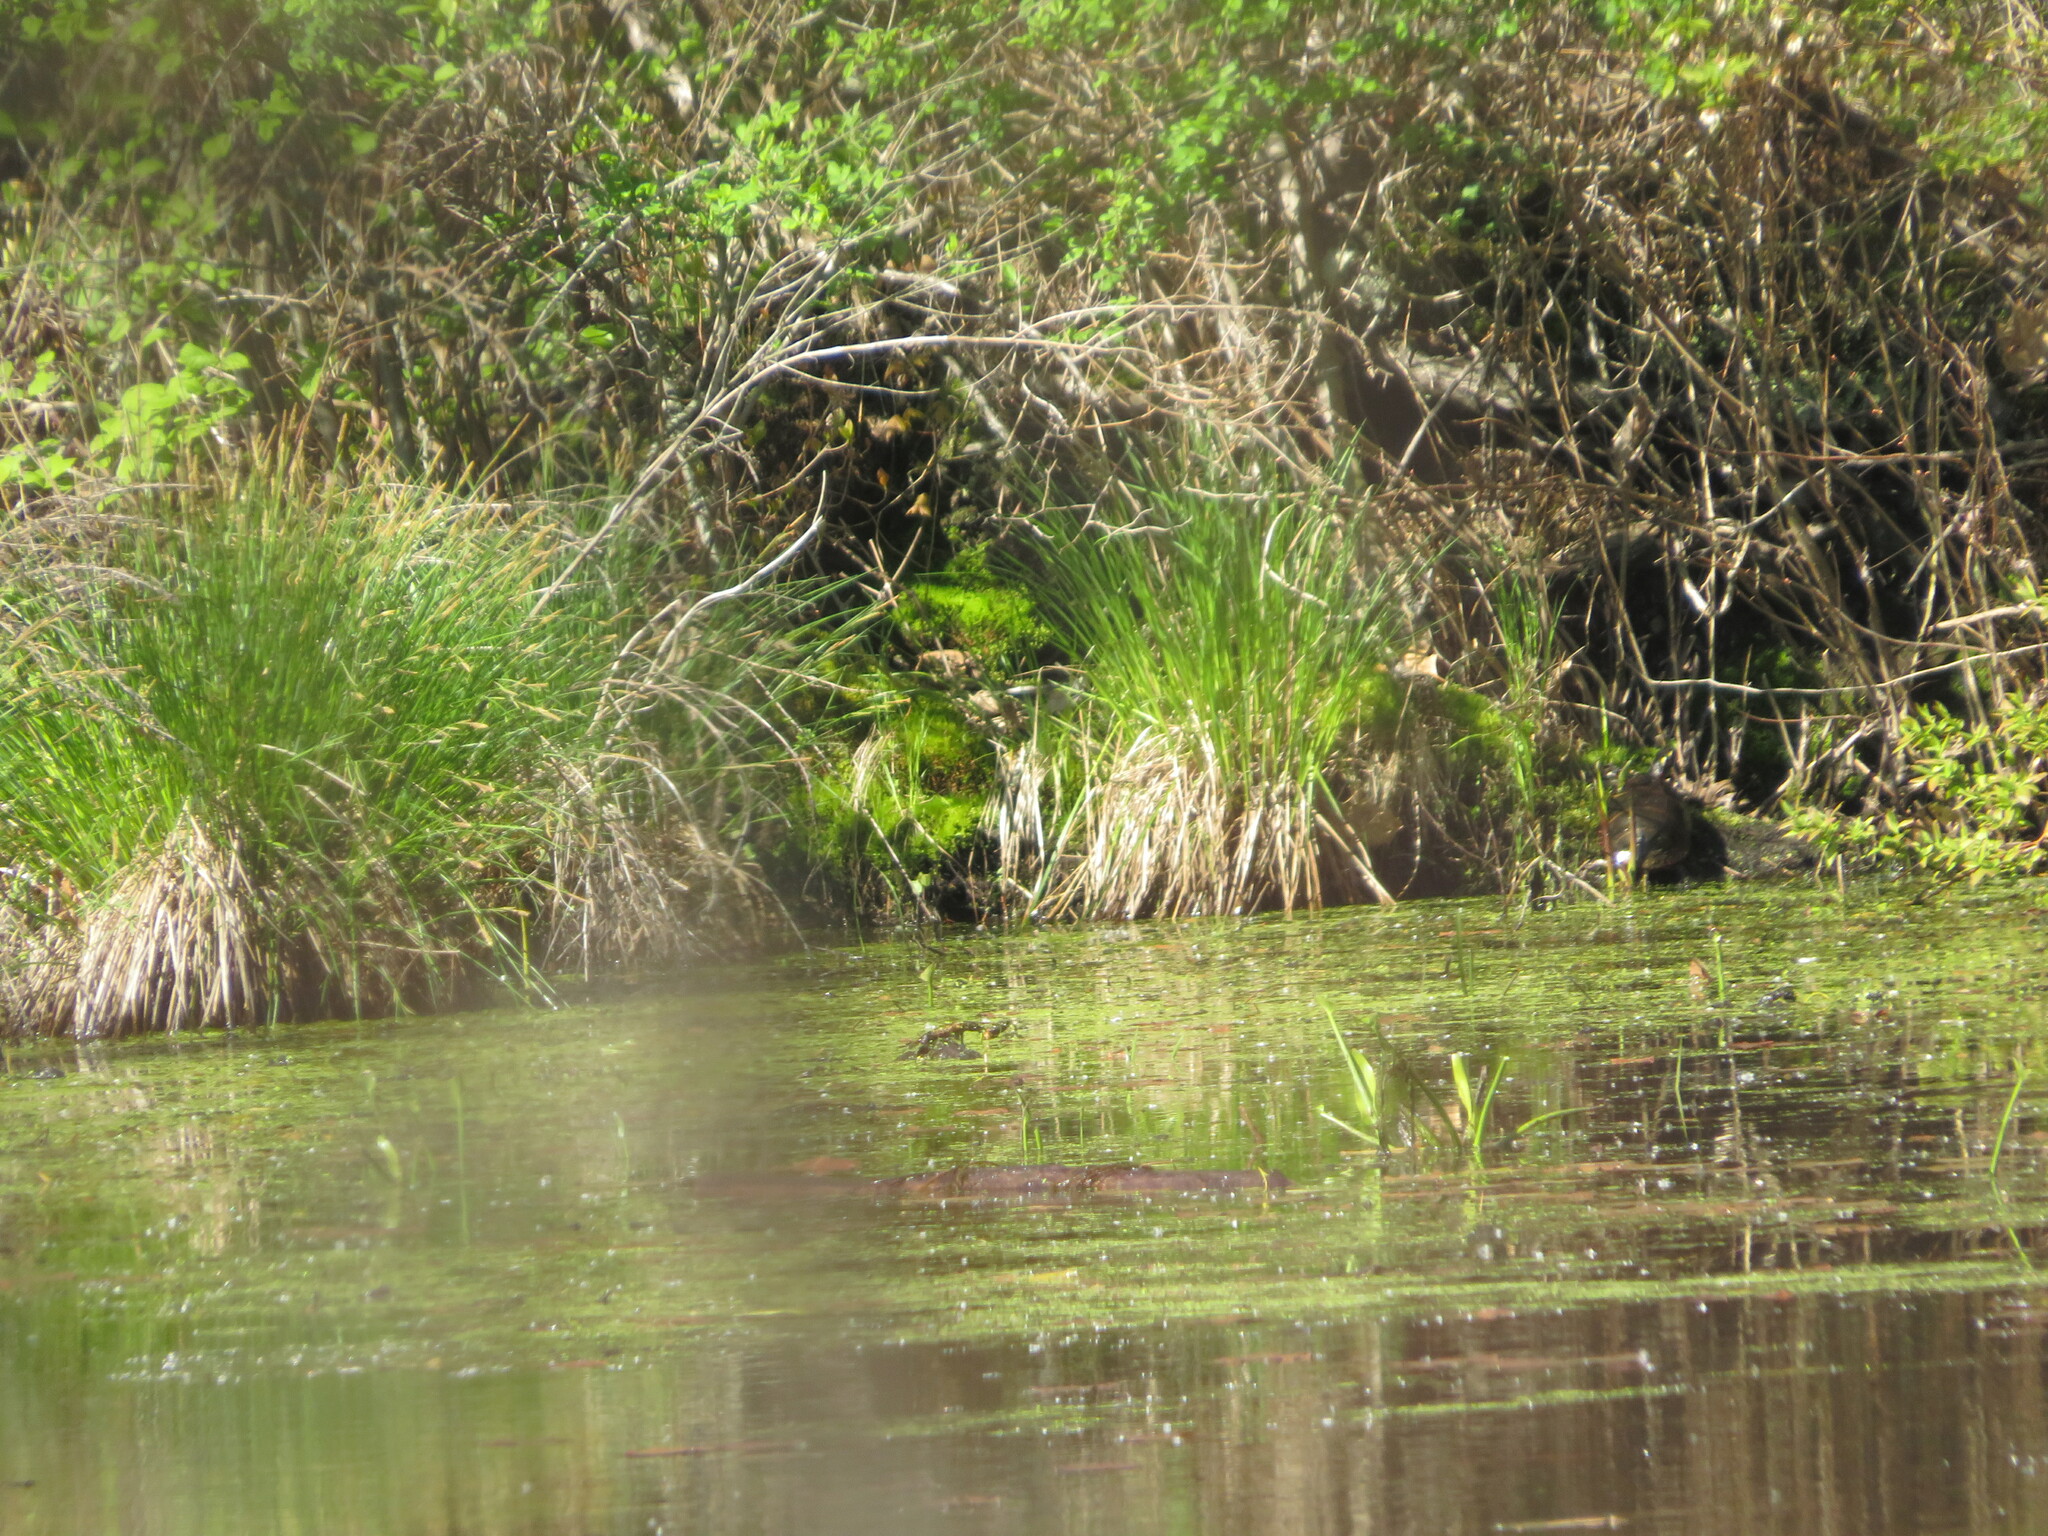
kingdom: Animalia
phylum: Chordata
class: Testudines
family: Emydidae
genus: Chrysemys
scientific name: Chrysemys picta
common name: Painted turtle
